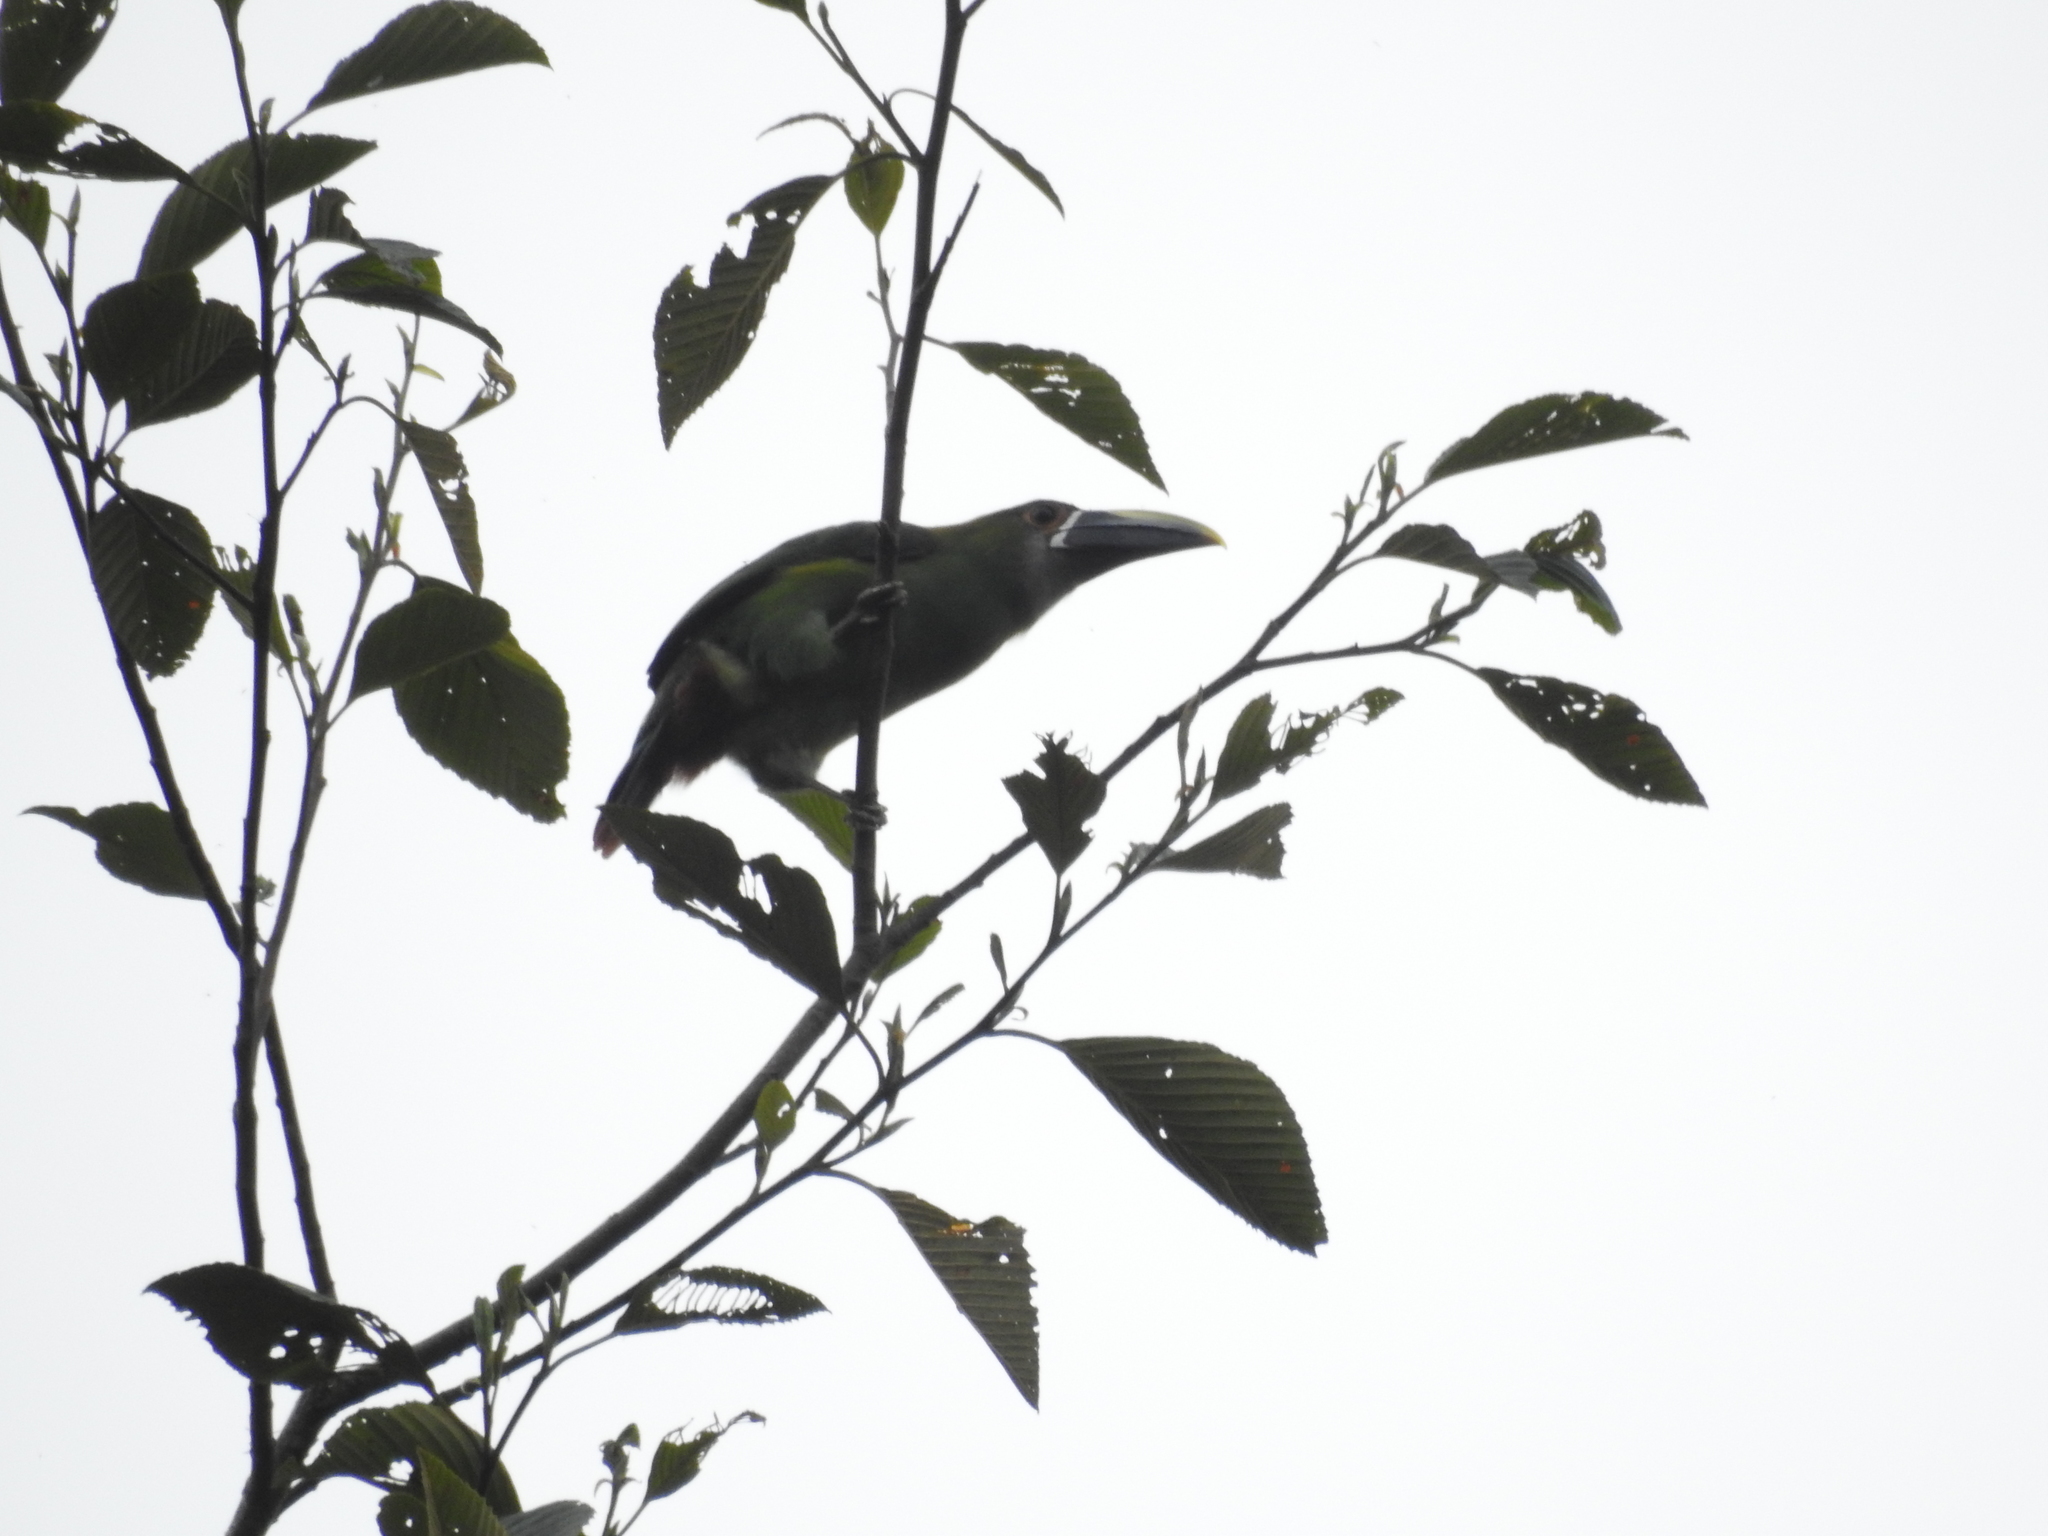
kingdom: Animalia
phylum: Chordata
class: Aves
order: Piciformes
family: Ramphastidae
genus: Aulacorhynchus
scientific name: Aulacorhynchus albivitta
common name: White-throated toucanet
